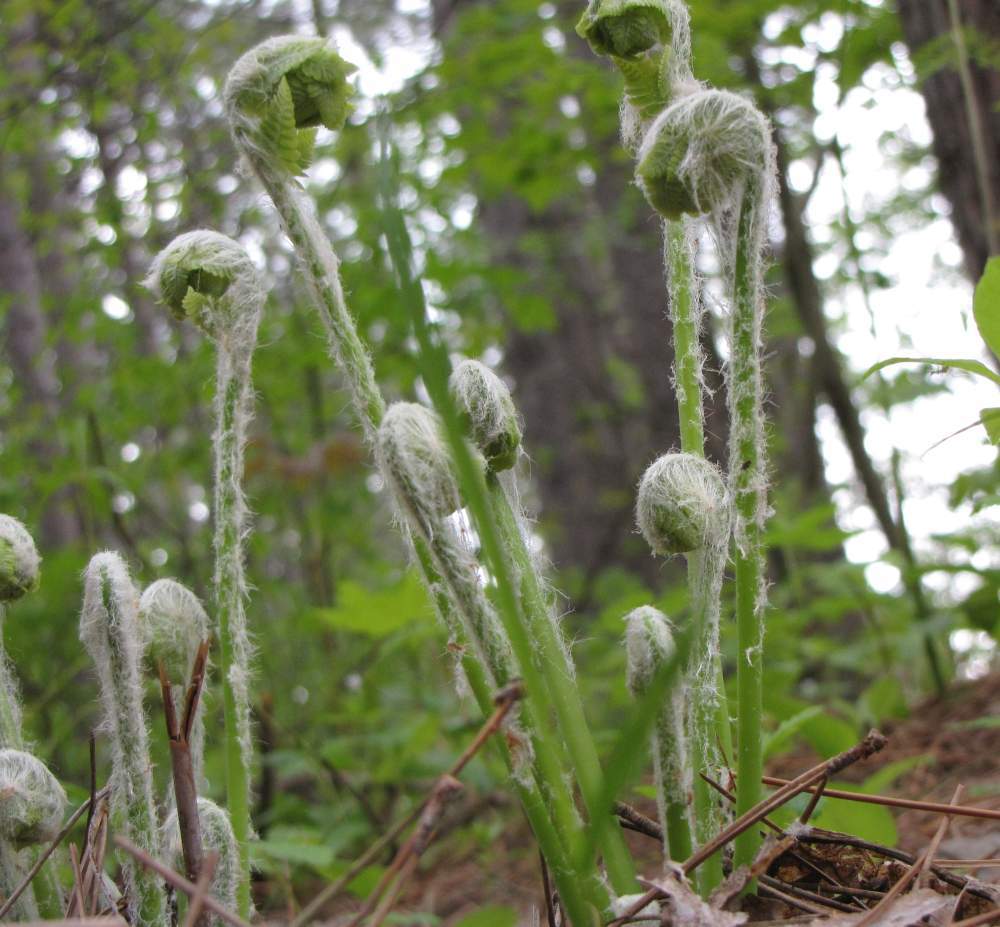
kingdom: Plantae
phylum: Tracheophyta
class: Polypodiopsida
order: Osmundales
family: Osmundaceae
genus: Osmundastrum
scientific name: Osmundastrum cinnamomeum
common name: Cinnamon fern
